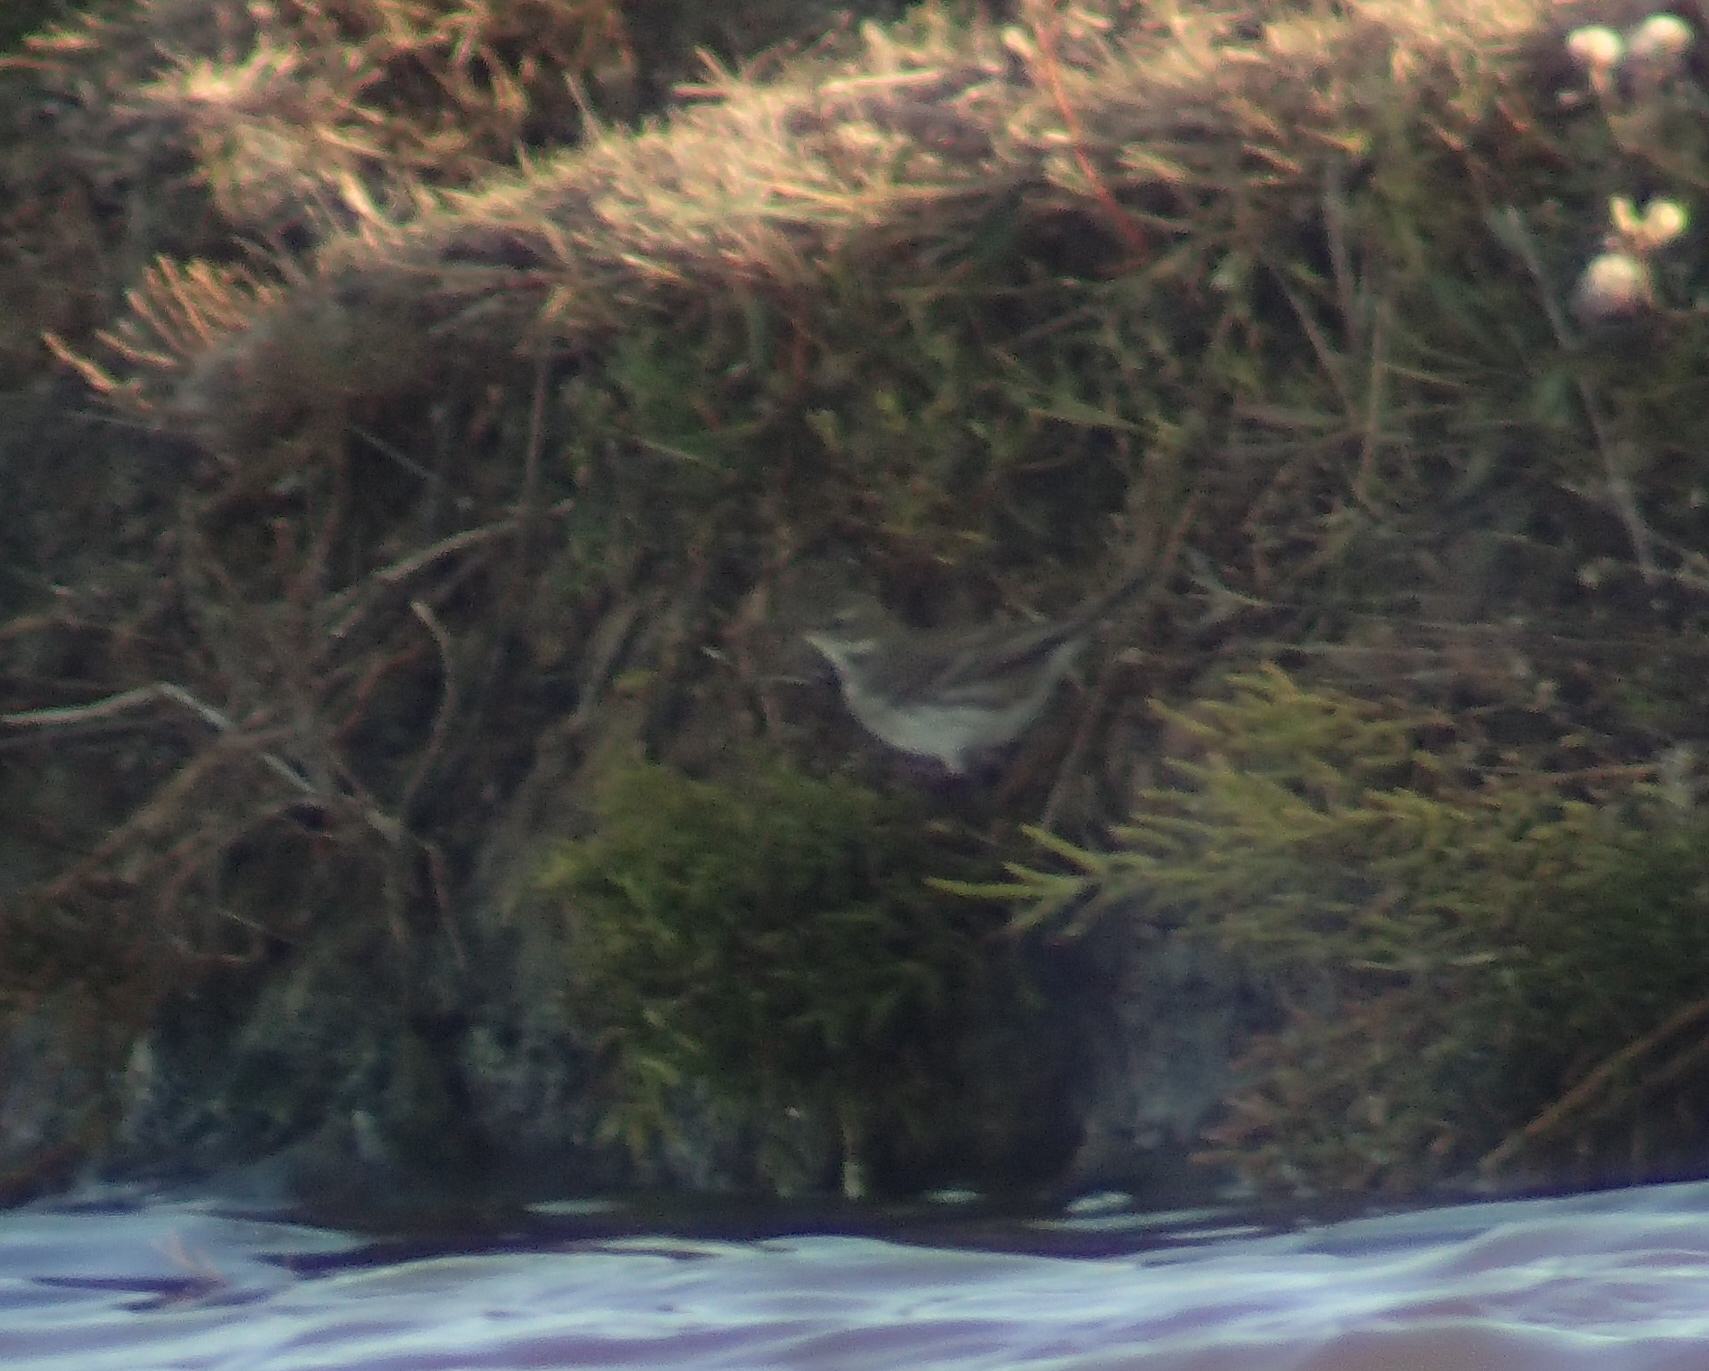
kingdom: Animalia
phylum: Chordata
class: Aves
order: Passeriformes
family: Motacillidae
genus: Anthus
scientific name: Anthus spinoletta
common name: Water pipit
